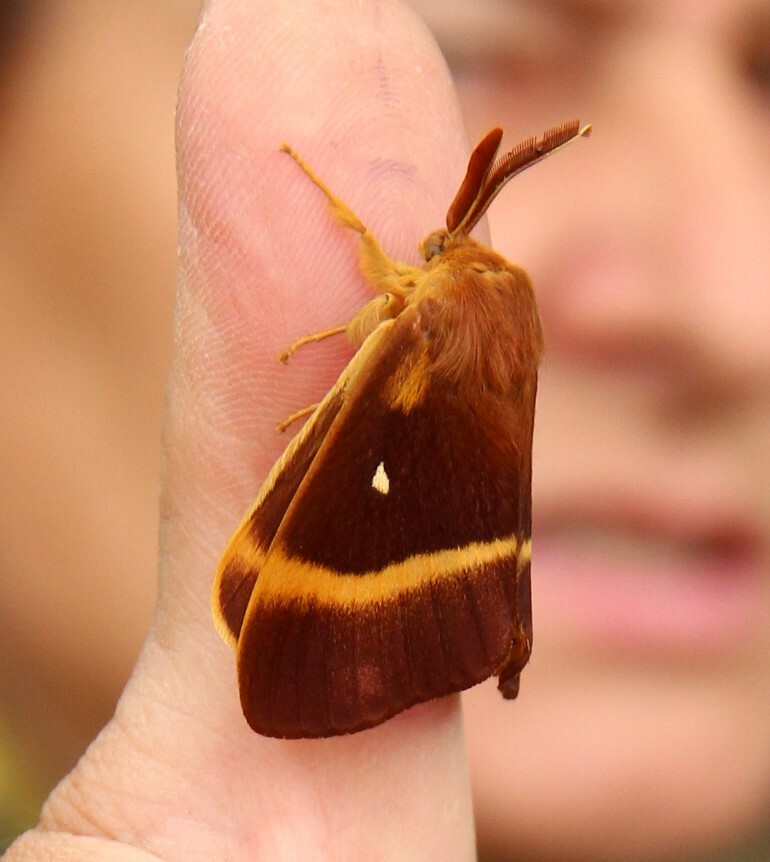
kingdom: Animalia
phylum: Arthropoda
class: Insecta
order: Lepidoptera
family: Lasiocampidae
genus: Lasiocampa
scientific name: Lasiocampa quercus
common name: Oak eggar
